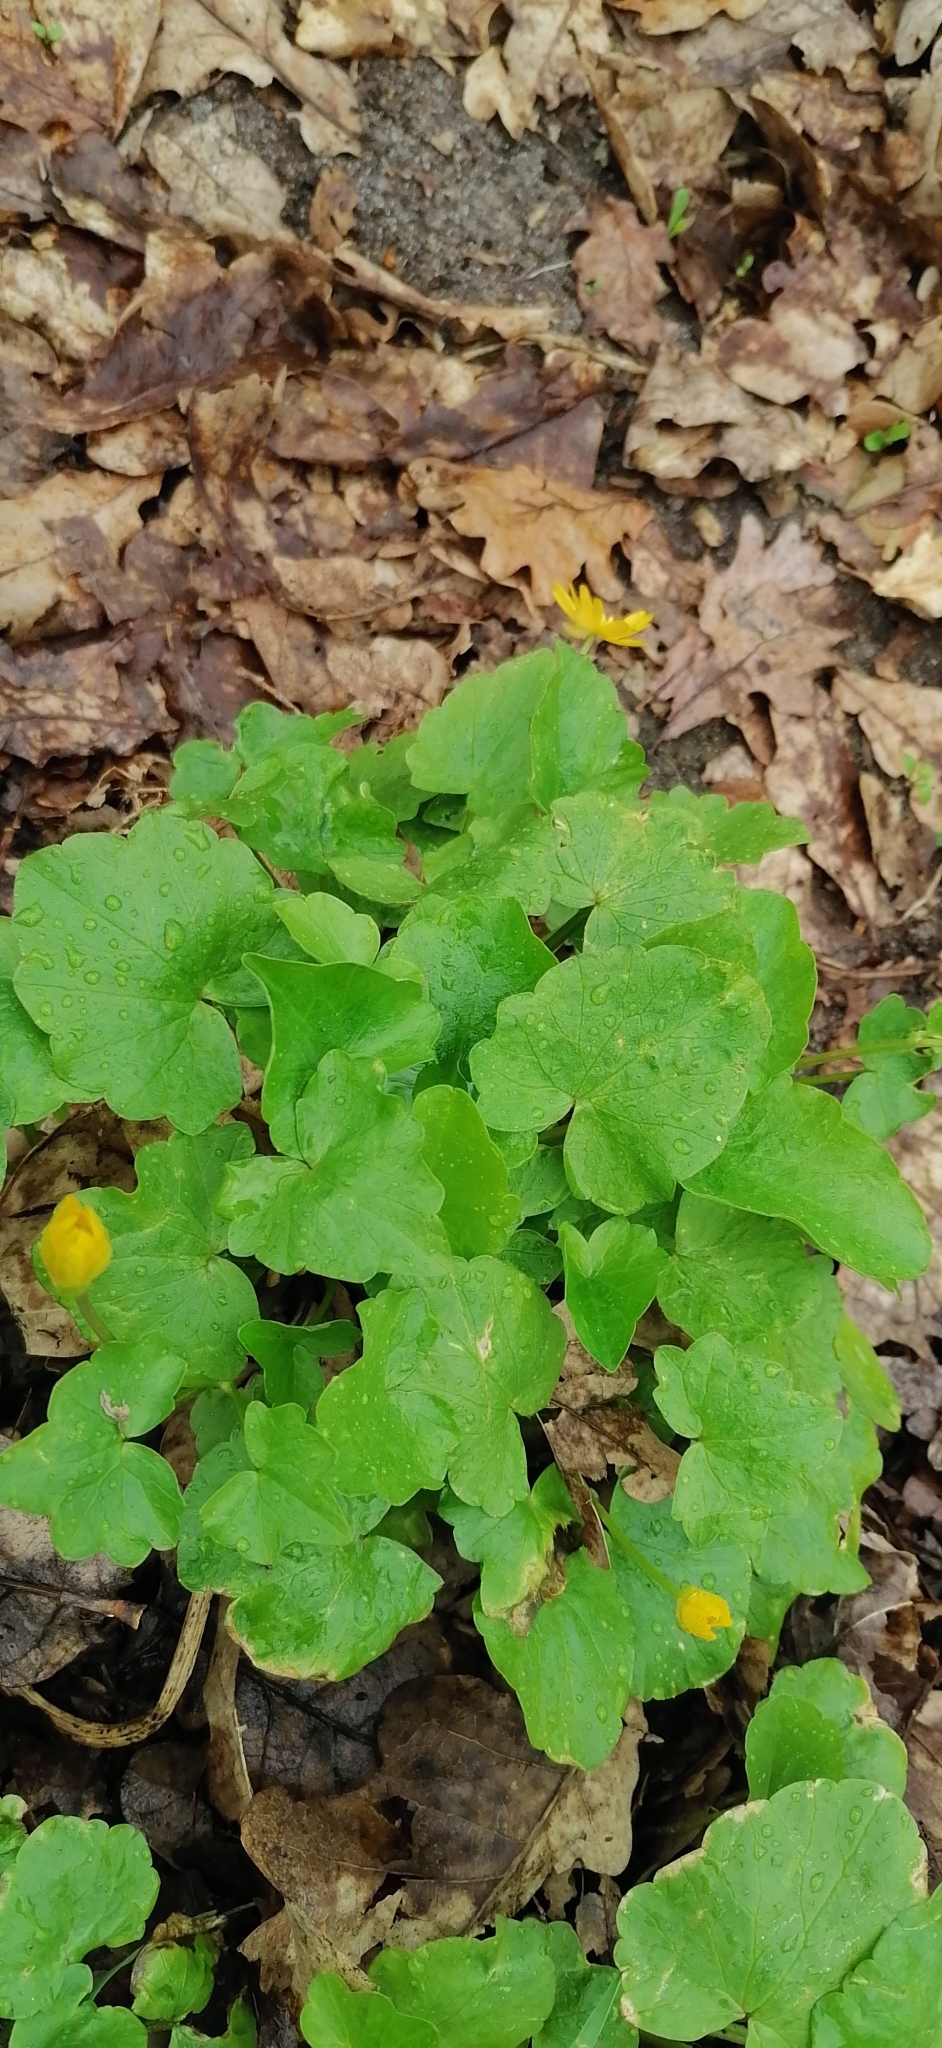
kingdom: Plantae
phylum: Tracheophyta
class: Magnoliopsida
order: Ranunculales
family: Ranunculaceae
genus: Ficaria
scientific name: Ficaria verna
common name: Lesser celandine
